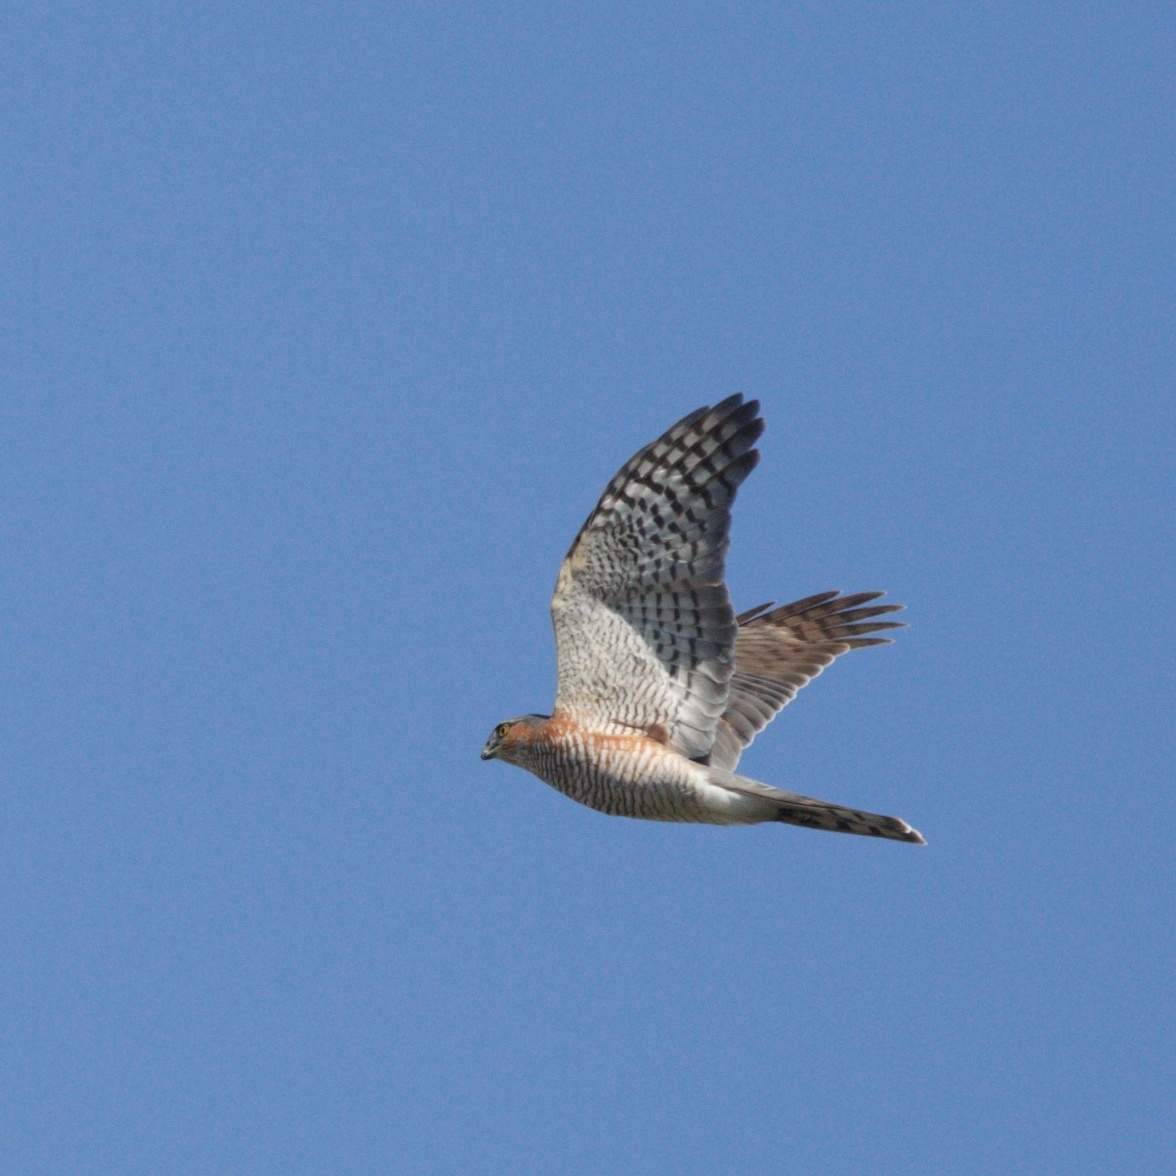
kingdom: Animalia
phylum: Chordata
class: Aves
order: Accipitriformes
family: Accipitridae
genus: Accipiter
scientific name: Accipiter nisus
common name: Eurasian sparrowhawk
